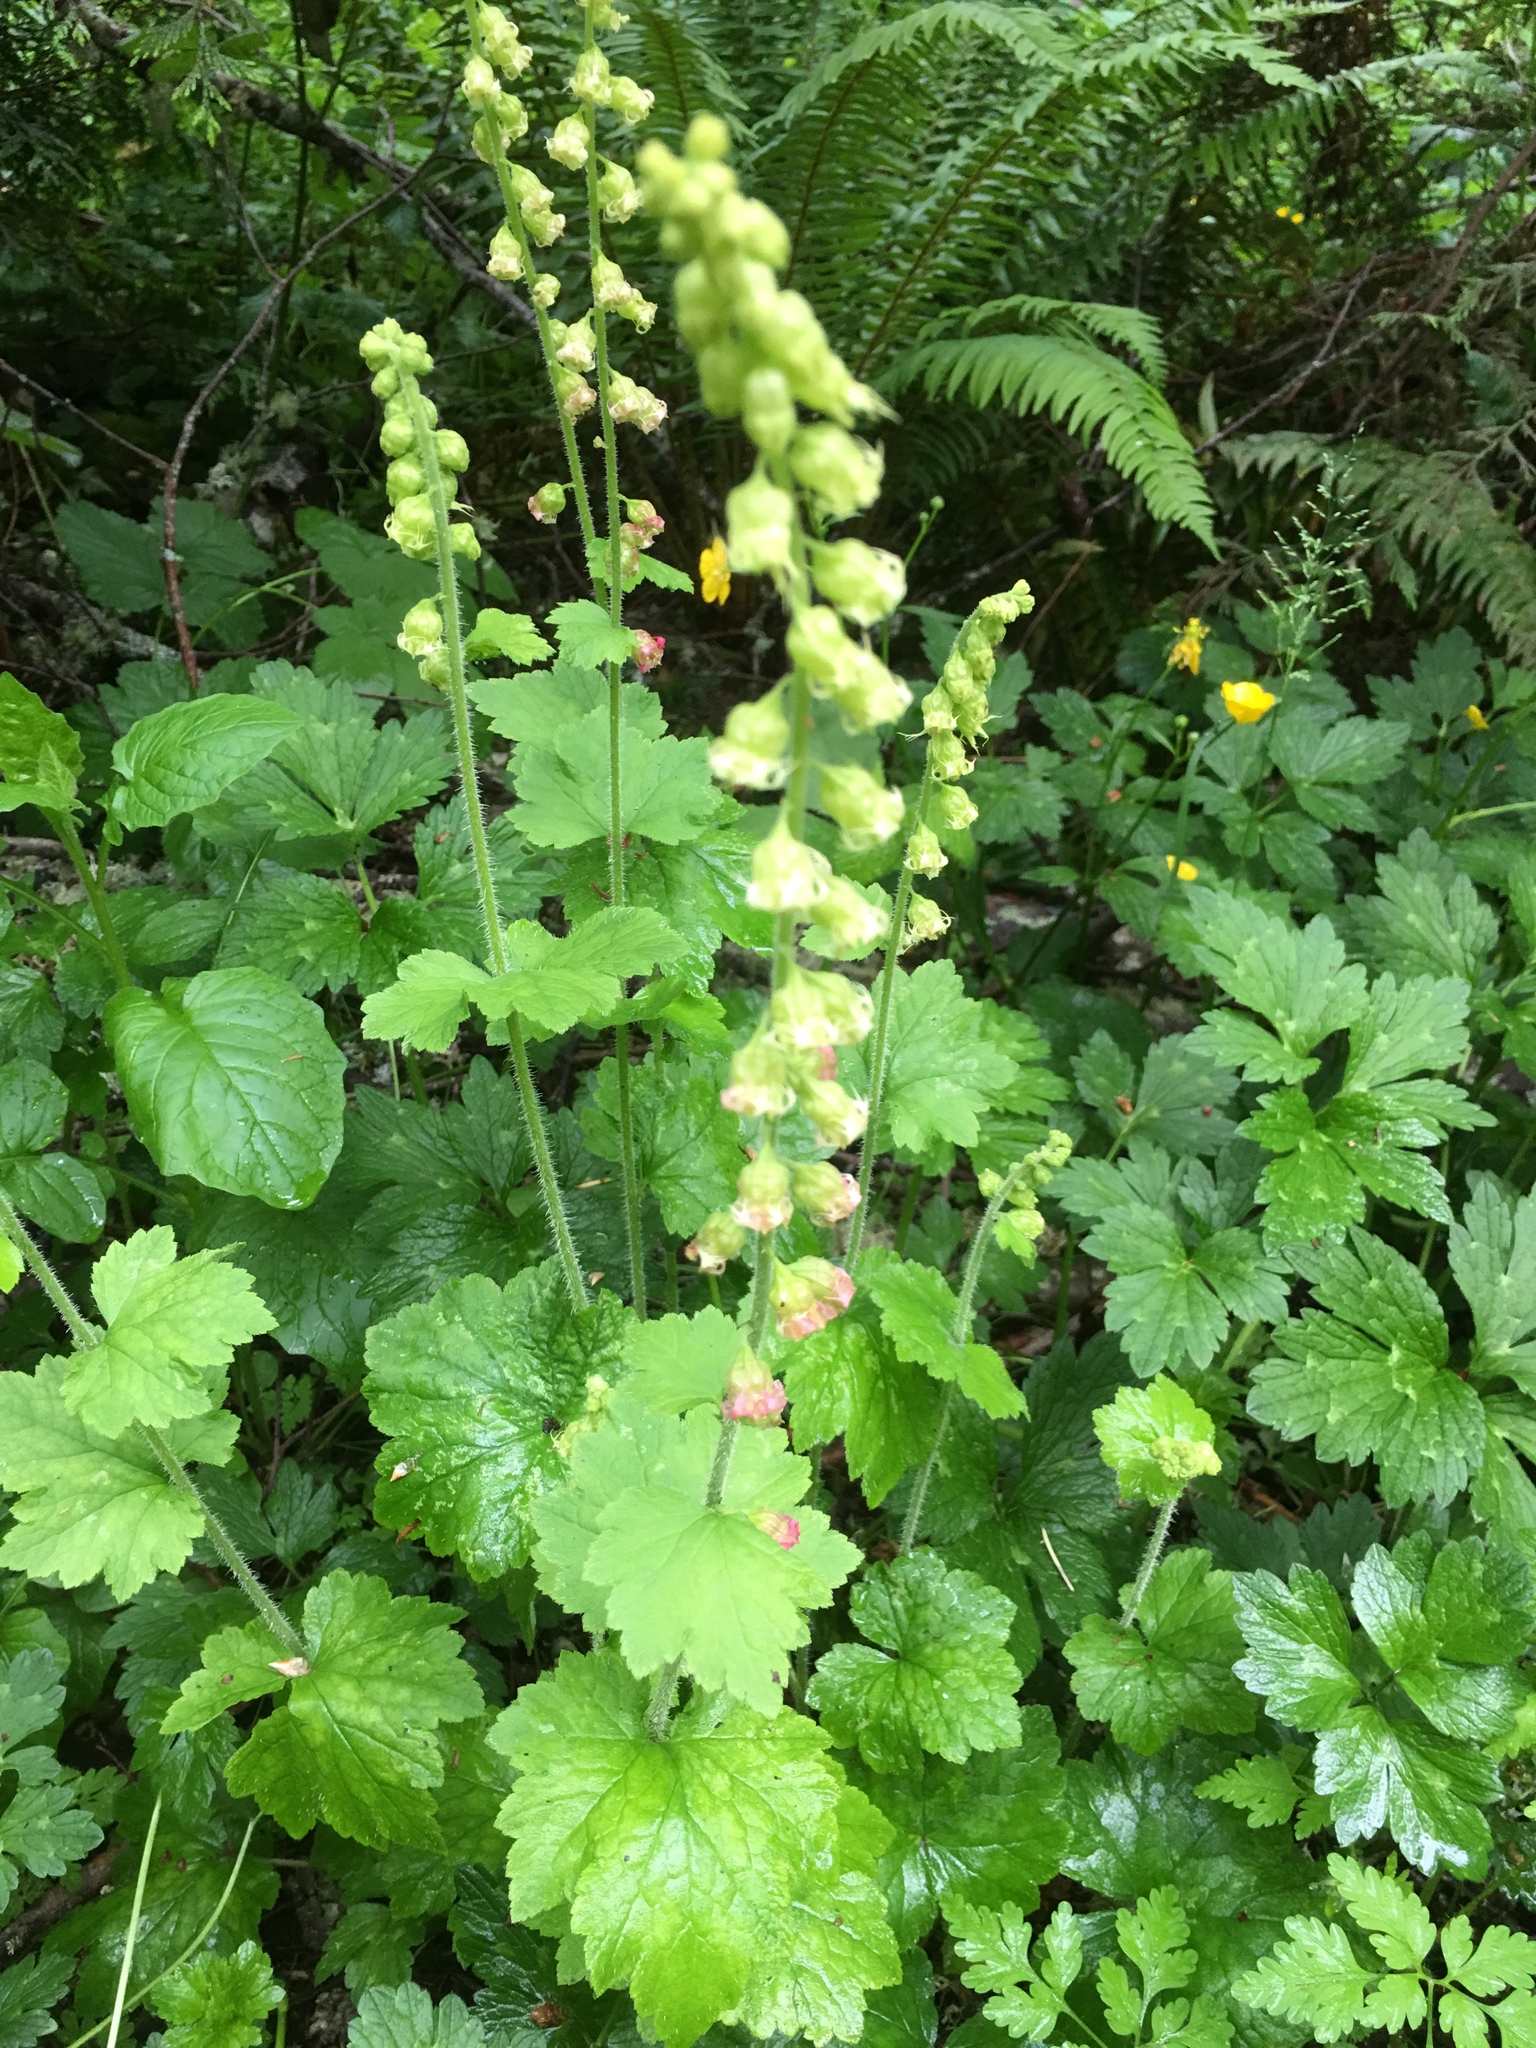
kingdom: Plantae
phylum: Tracheophyta
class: Magnoliopsida
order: Saxifragales
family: Saxifragaceae
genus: Tellima
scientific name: Tellima grandiflora
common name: Fringecups
